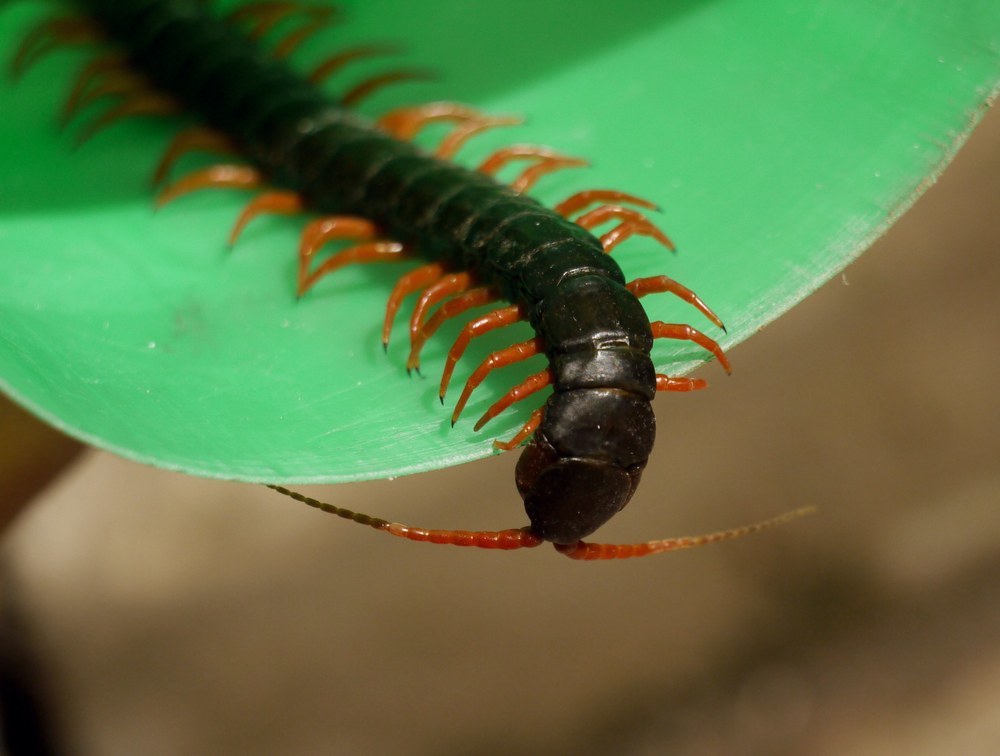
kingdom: Animalia
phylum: Arthropoda
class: Chilopoda
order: Scolopendromorpha
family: Scolopendridae
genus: Scolopendra
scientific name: Scolopendra cingulata
